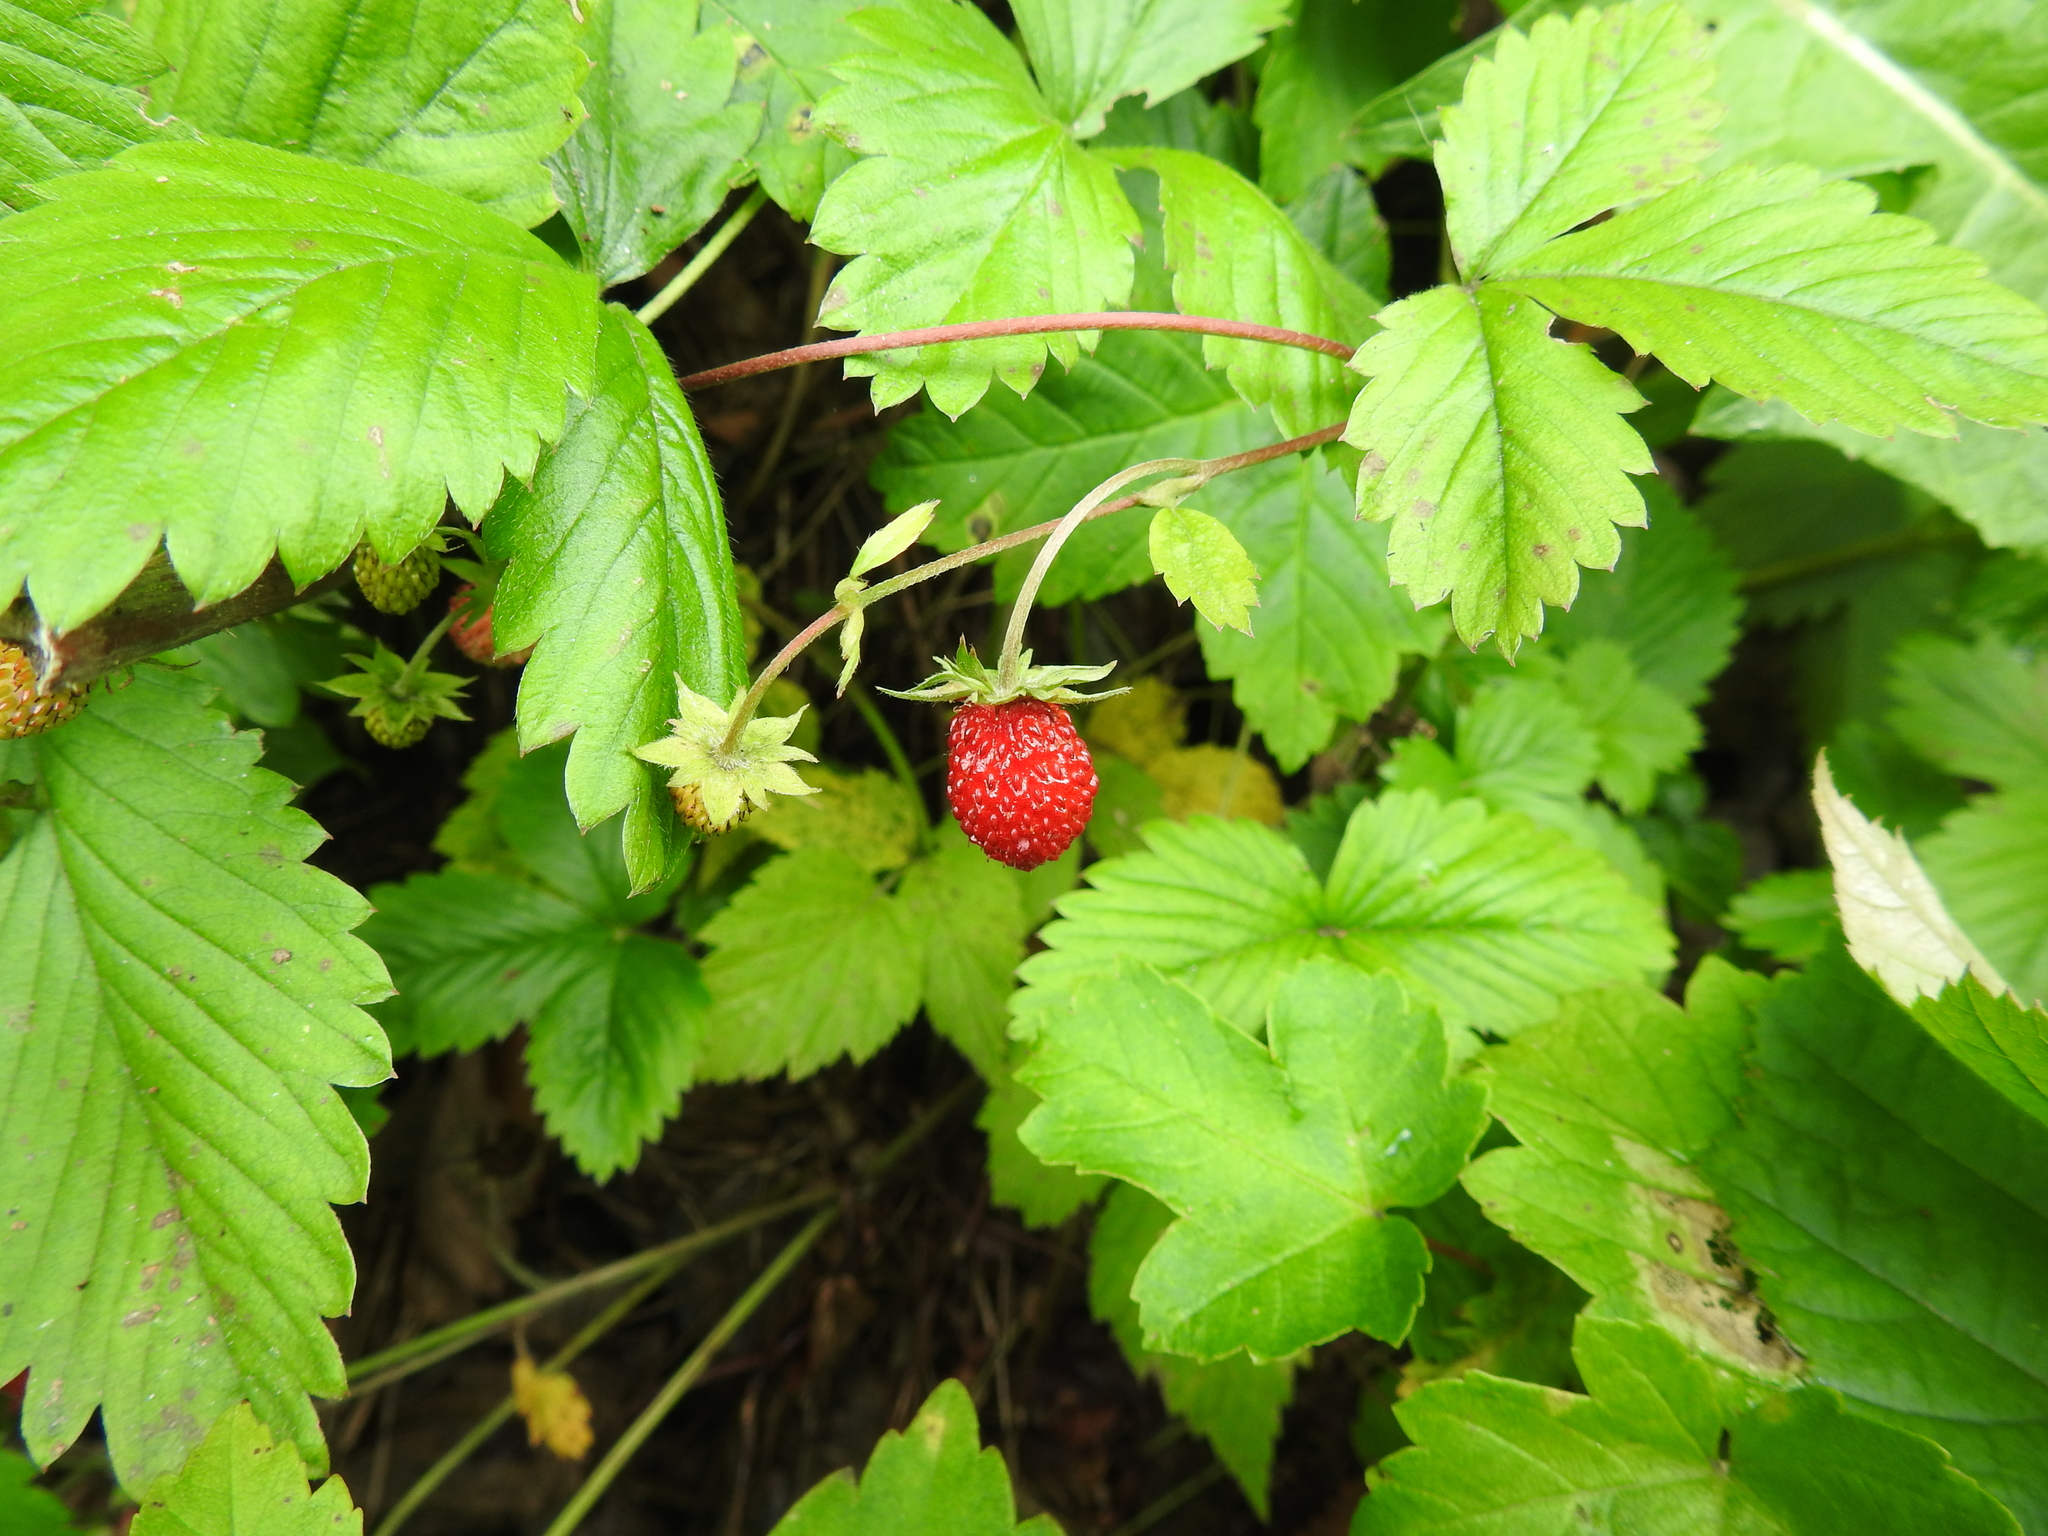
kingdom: Plantae
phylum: Tracheophyta
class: Magnoliopsida
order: Rosales
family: Rosaceae
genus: Fragaria
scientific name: Fragaria vesca
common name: Wild strawberry
